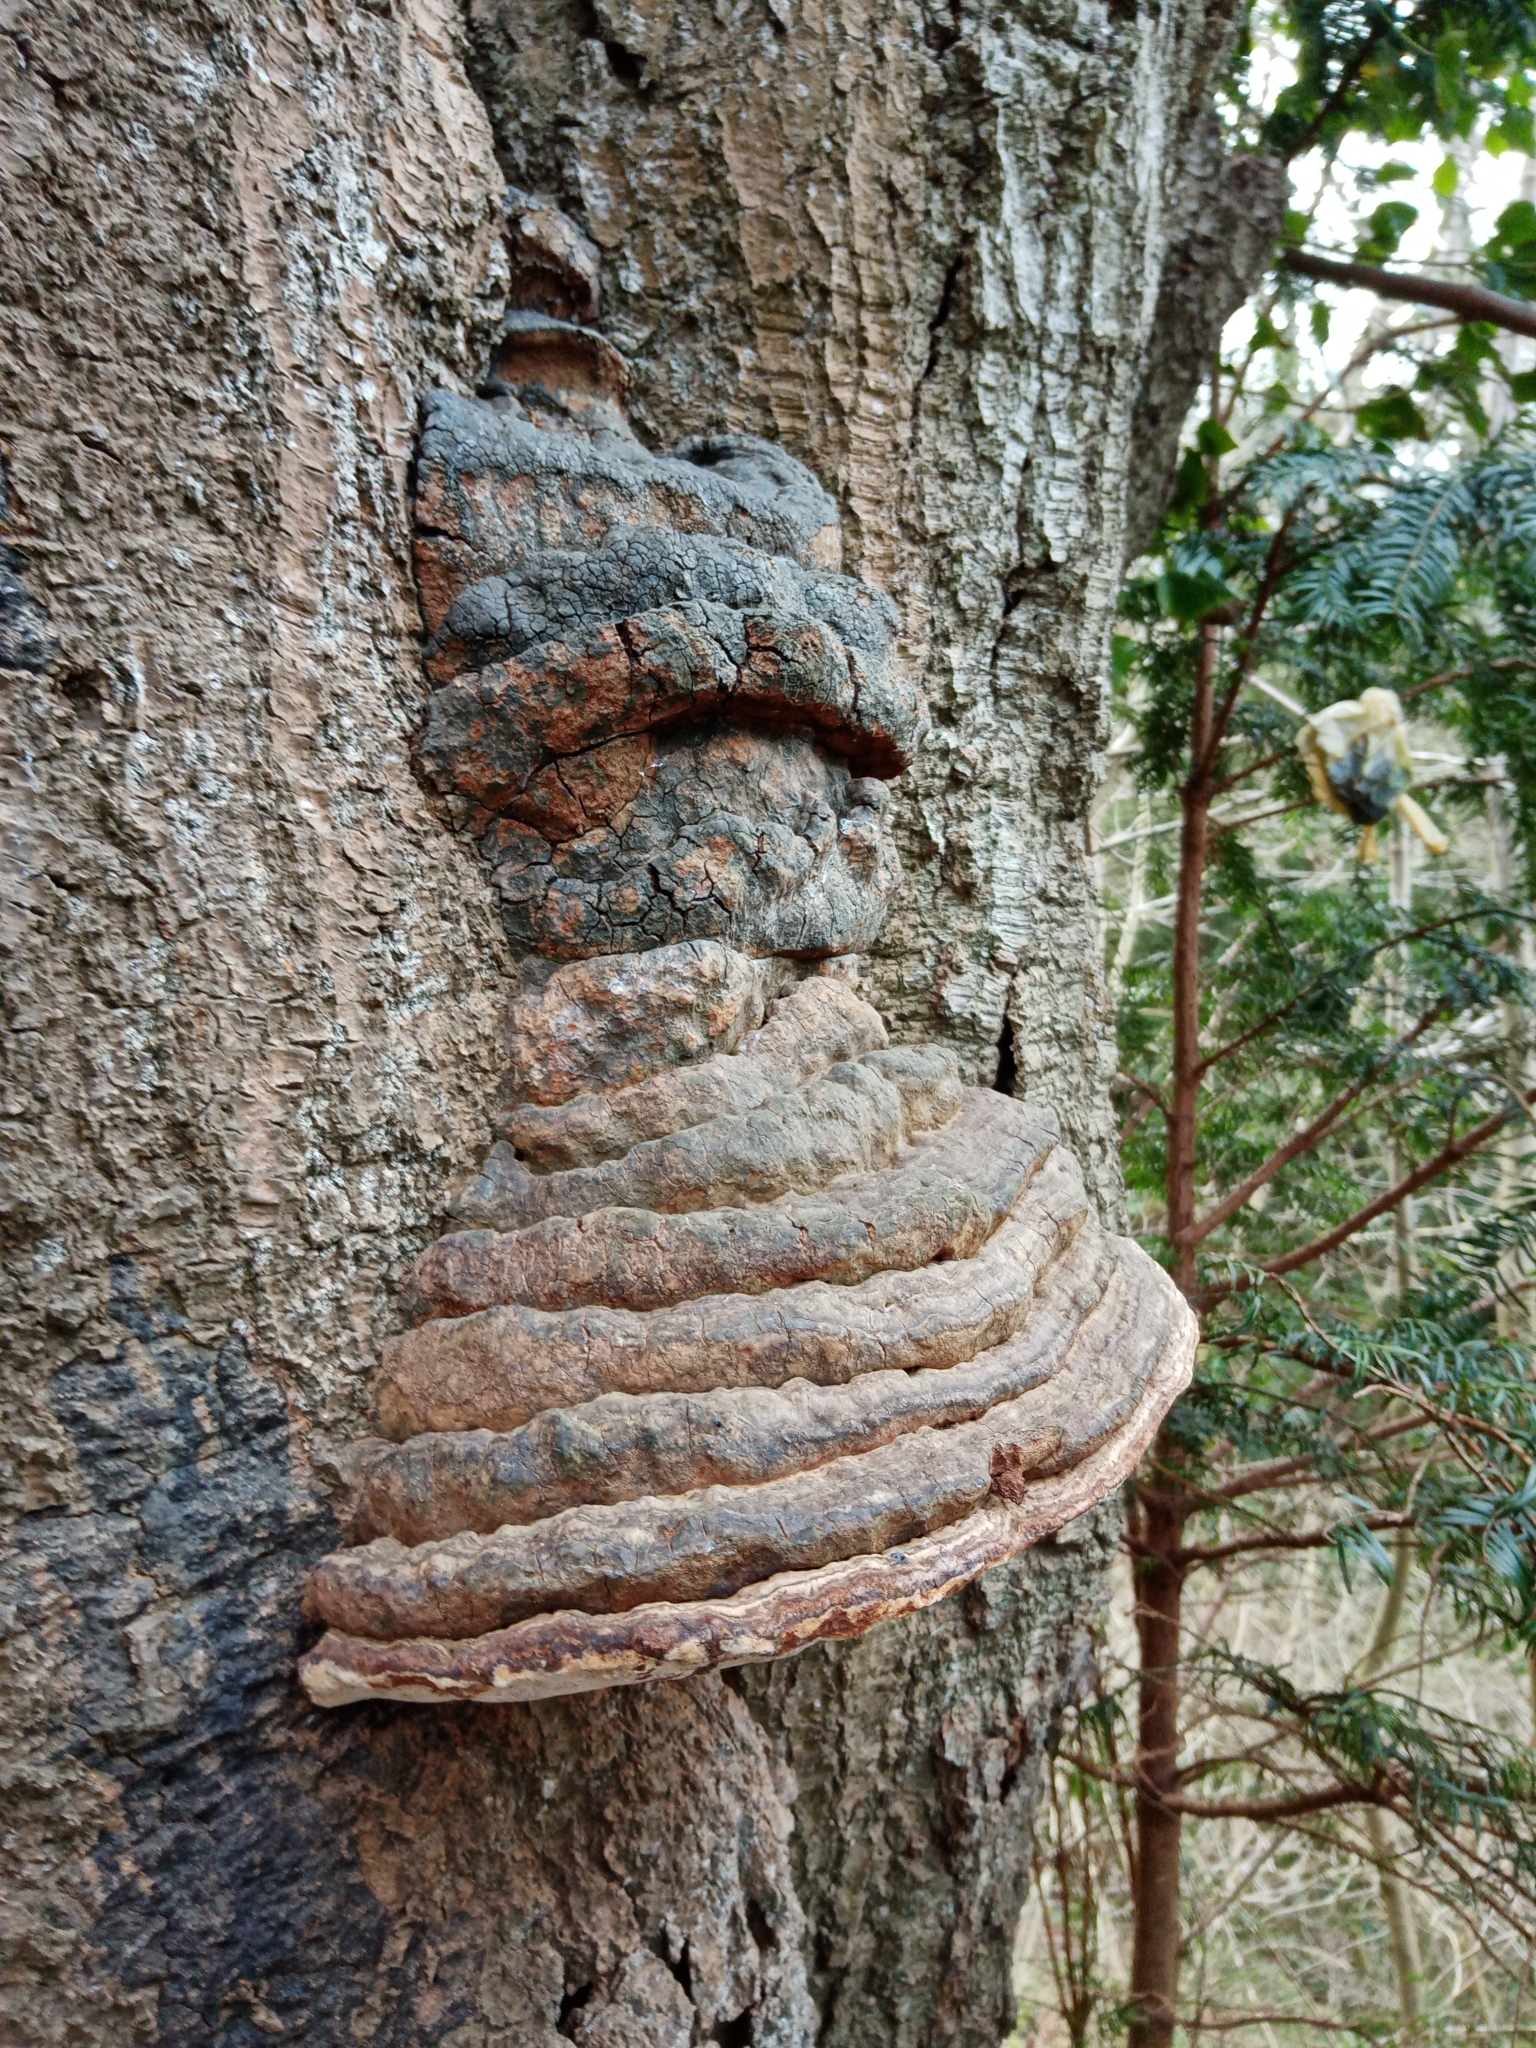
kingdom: Fungi
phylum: Basidiomycota
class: Agaricomycetes
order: Polyporales
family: Polyporaceae
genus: Fomes
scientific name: Fomes fomentarius
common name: Hoof fungus
